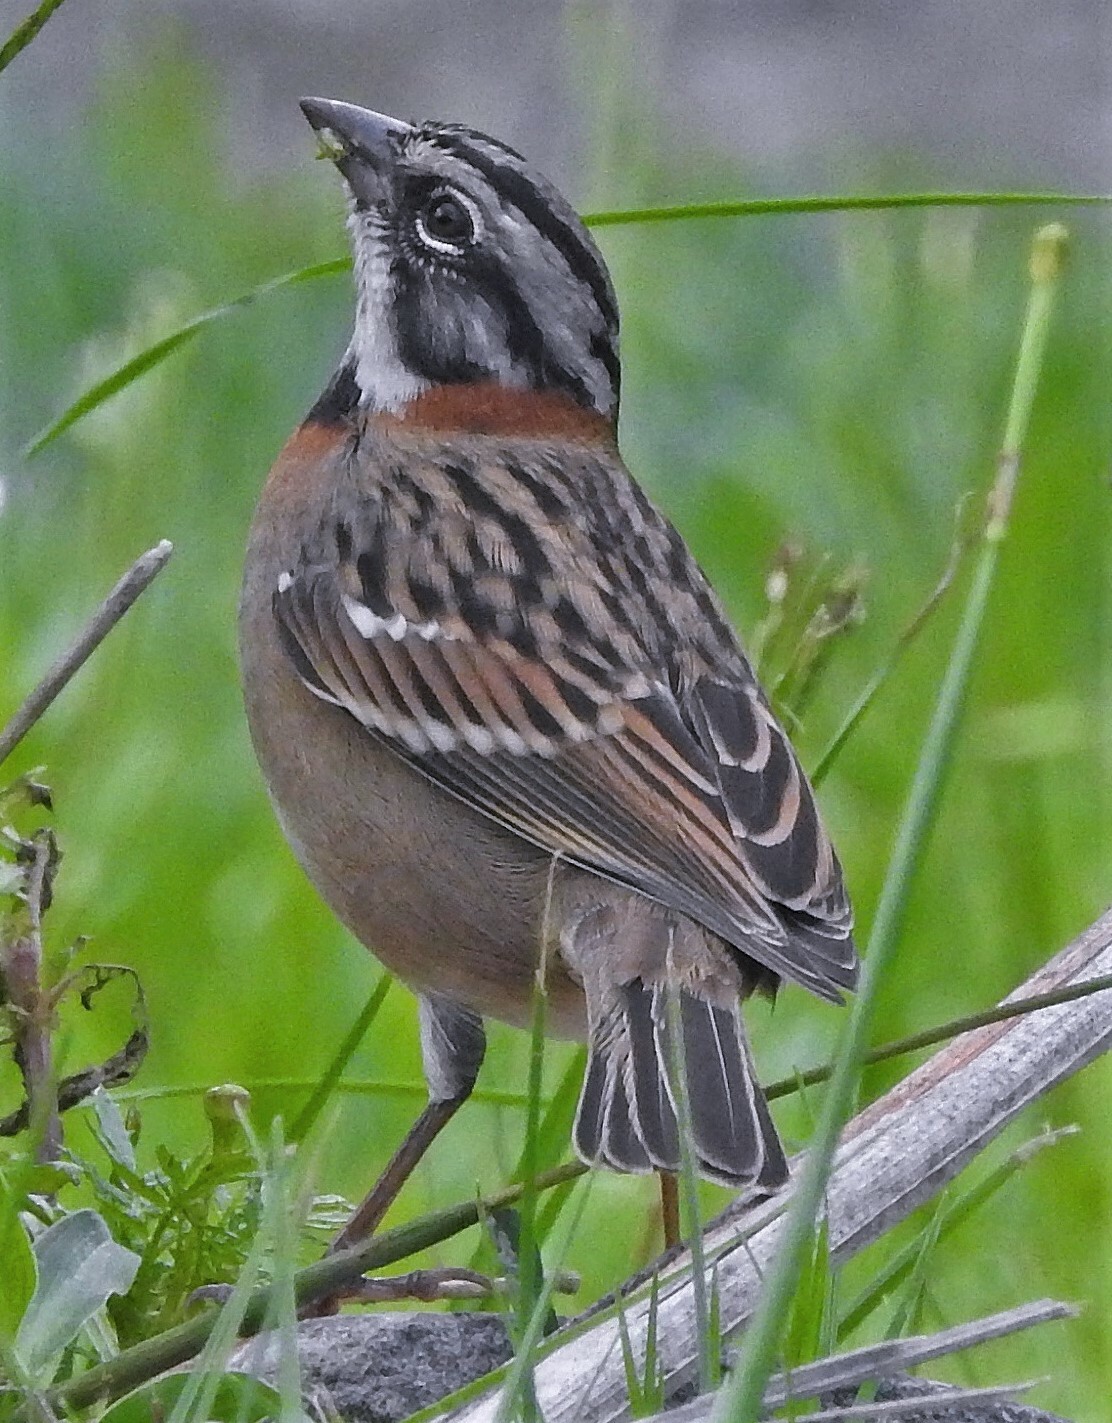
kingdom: Animalia
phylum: Chordata
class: Aves
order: Passeriformes
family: Passerellidae
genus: Zonotrichia
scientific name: Zonotrichia capensis
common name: Rufous-collared sparrow
